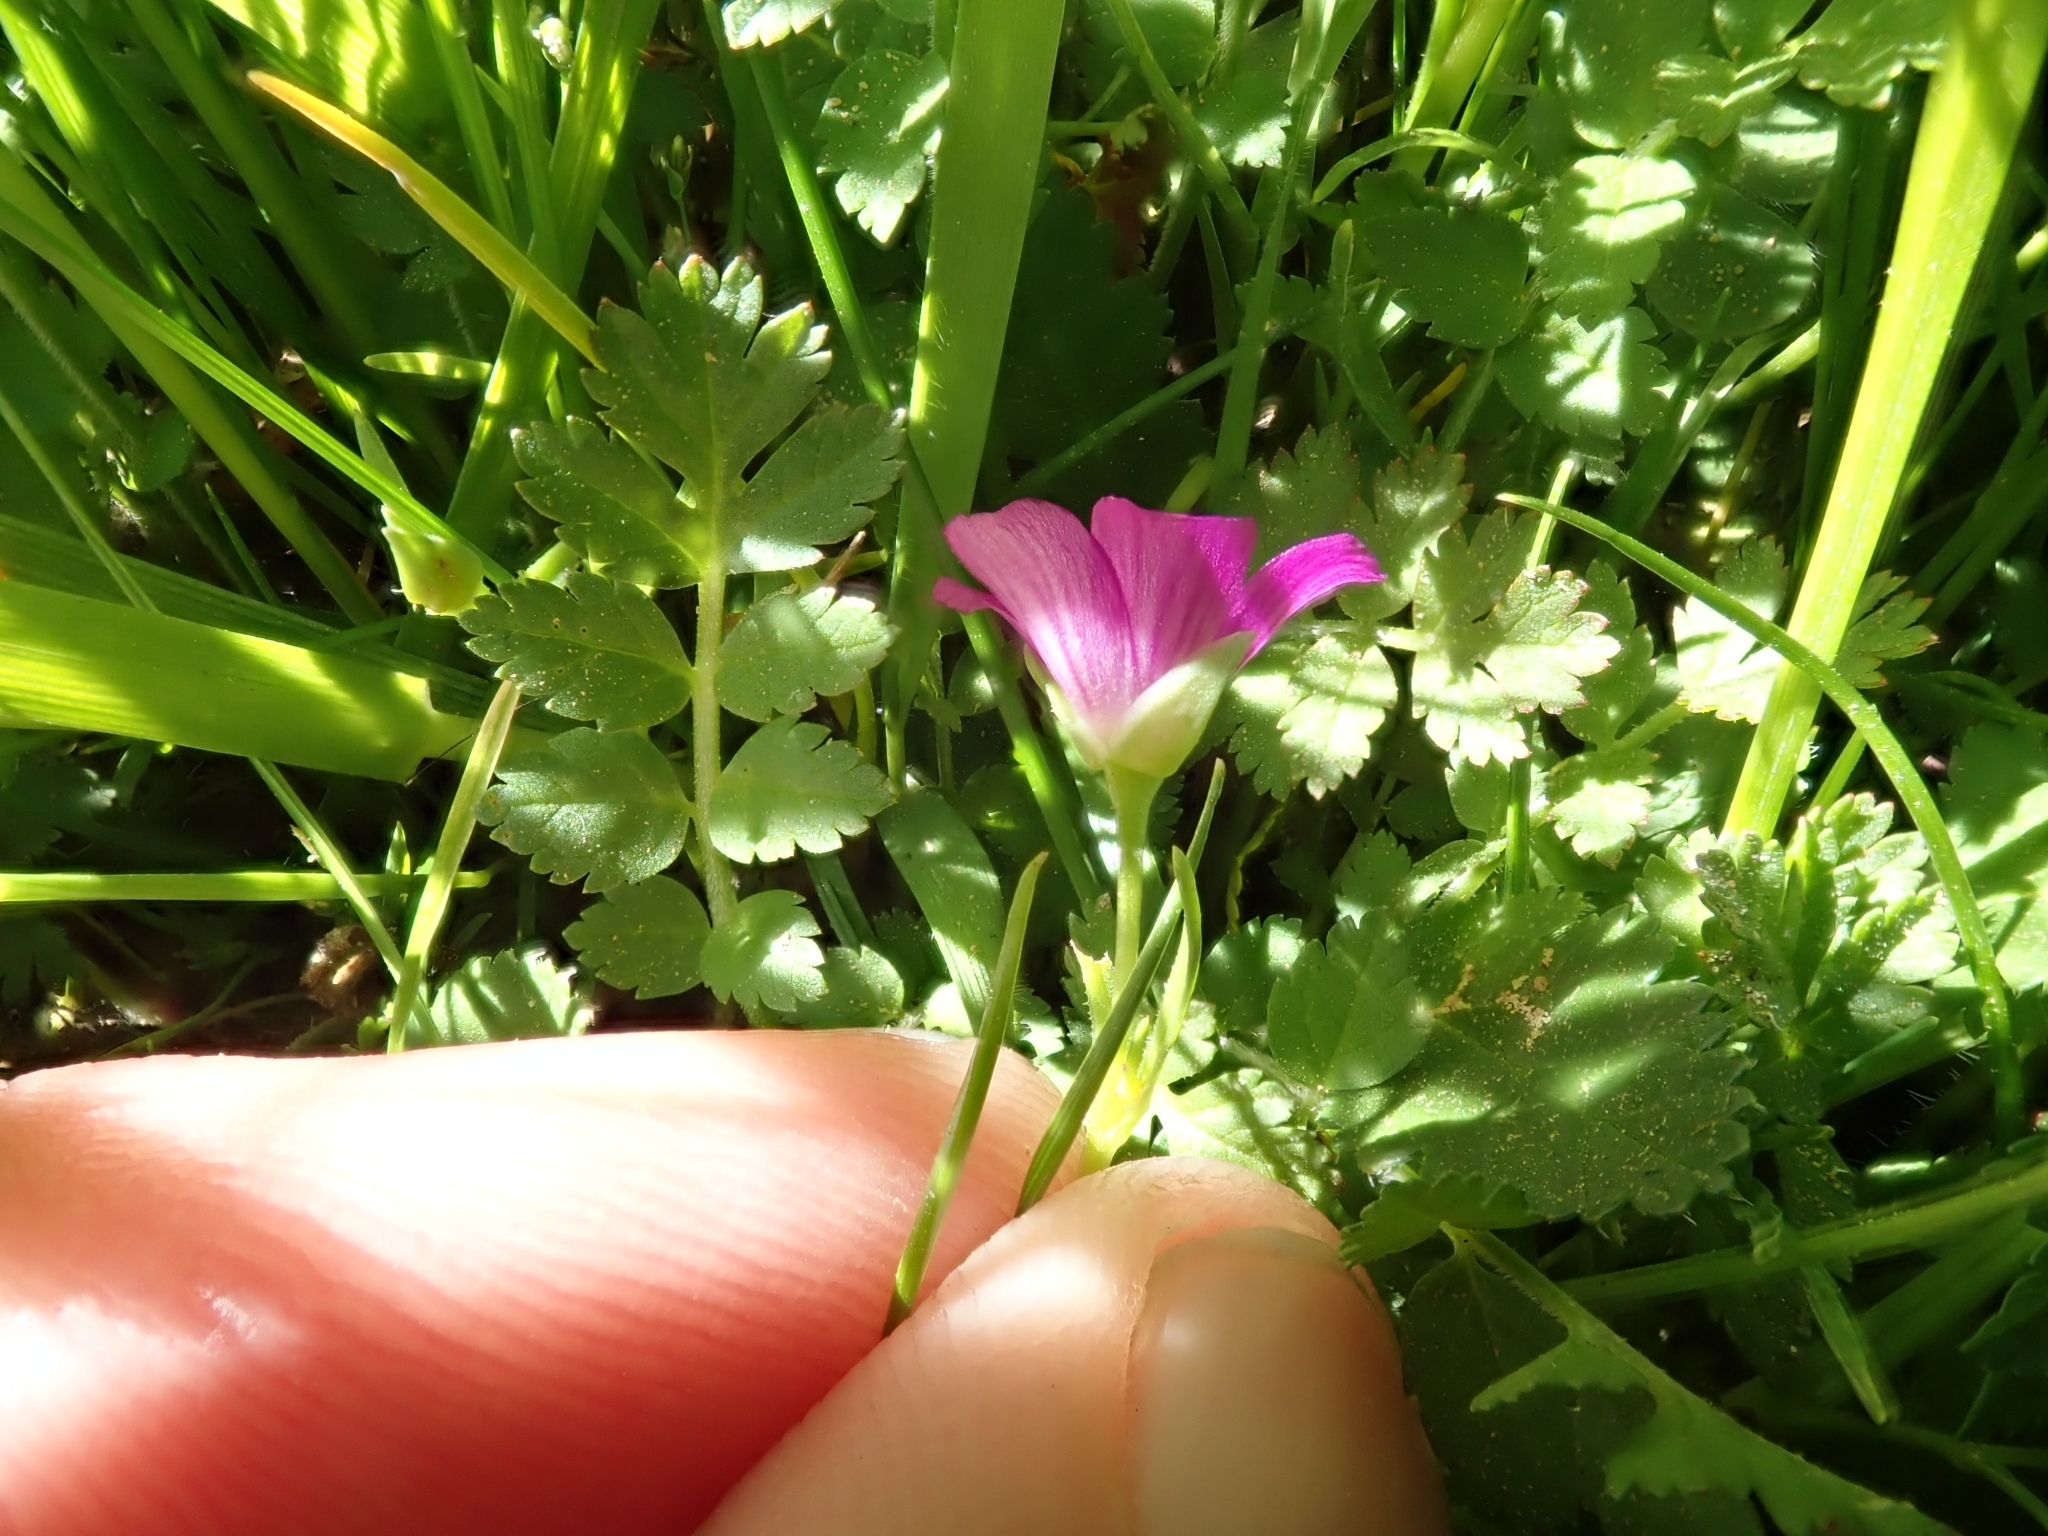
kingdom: Plantae
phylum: Tracheophyta
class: Magnoliopsida
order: Caryophyllales
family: Montiaceae
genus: Calandrinia
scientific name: Calandrinia menziesii
